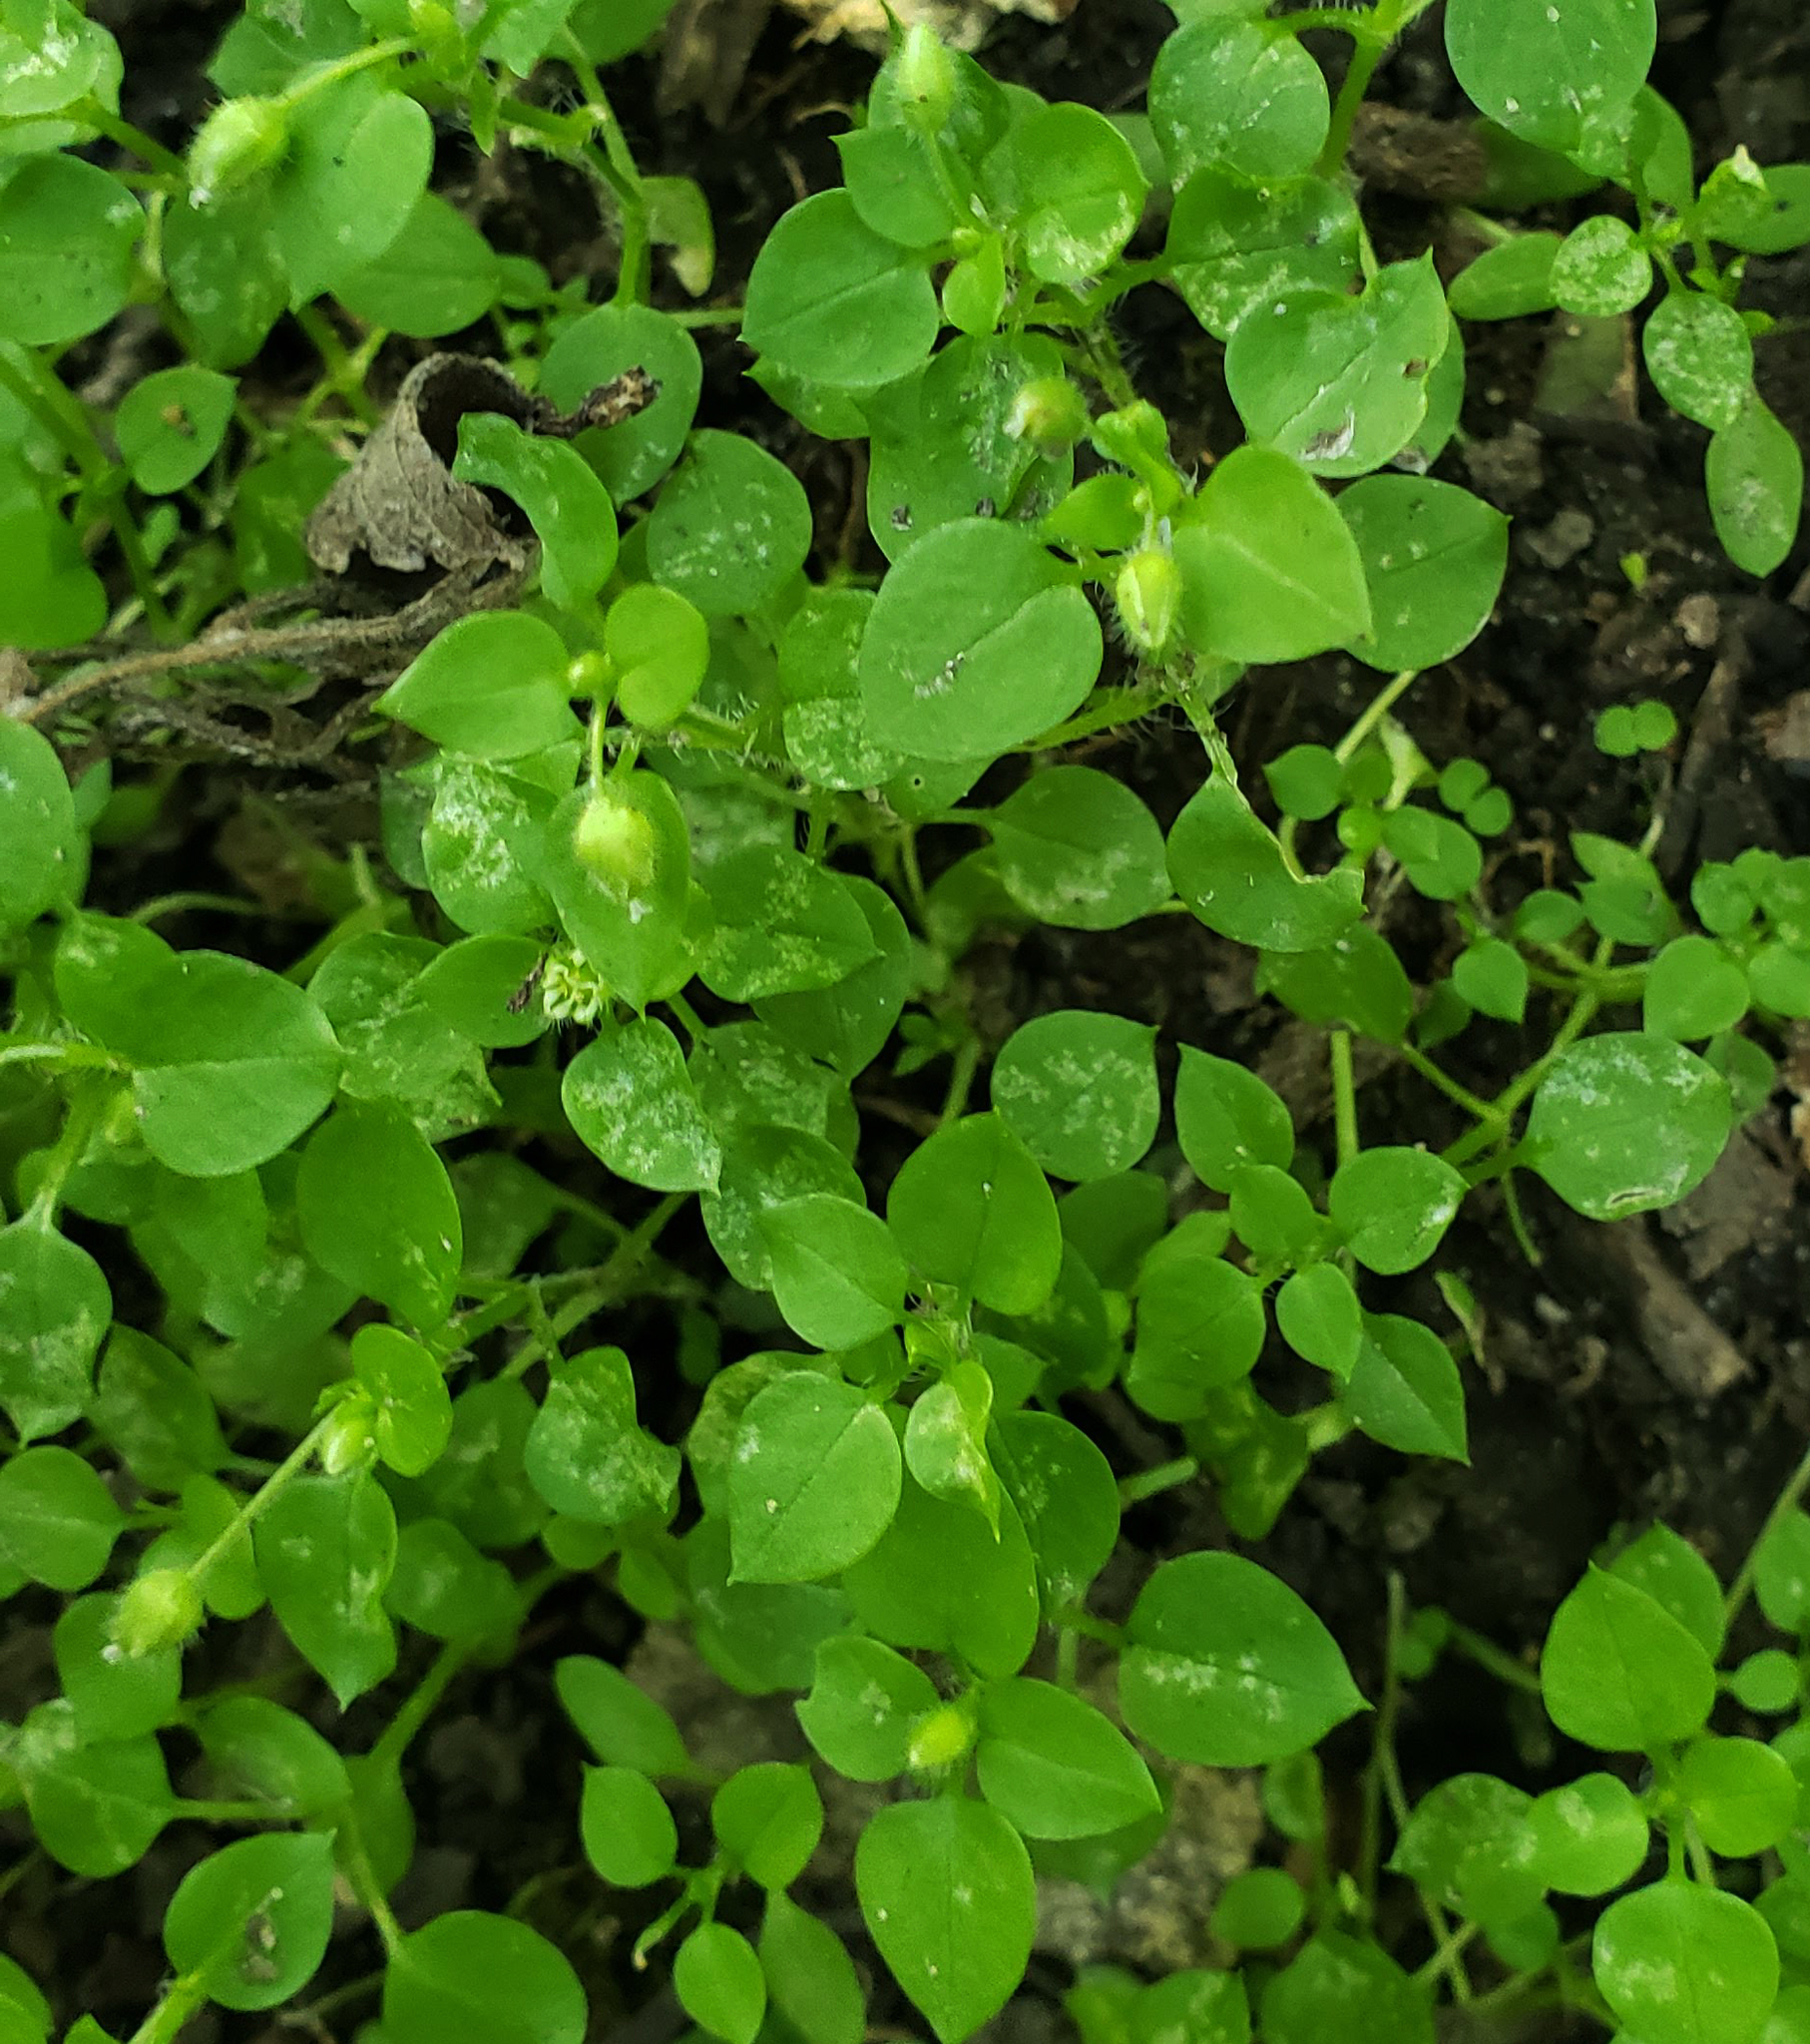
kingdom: Plantae
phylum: Tracheophyta
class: Magnoliopsida
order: Caryophyllales
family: Caryophyllaceae
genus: Stellaria
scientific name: Stellaria media
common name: Common chickweed
